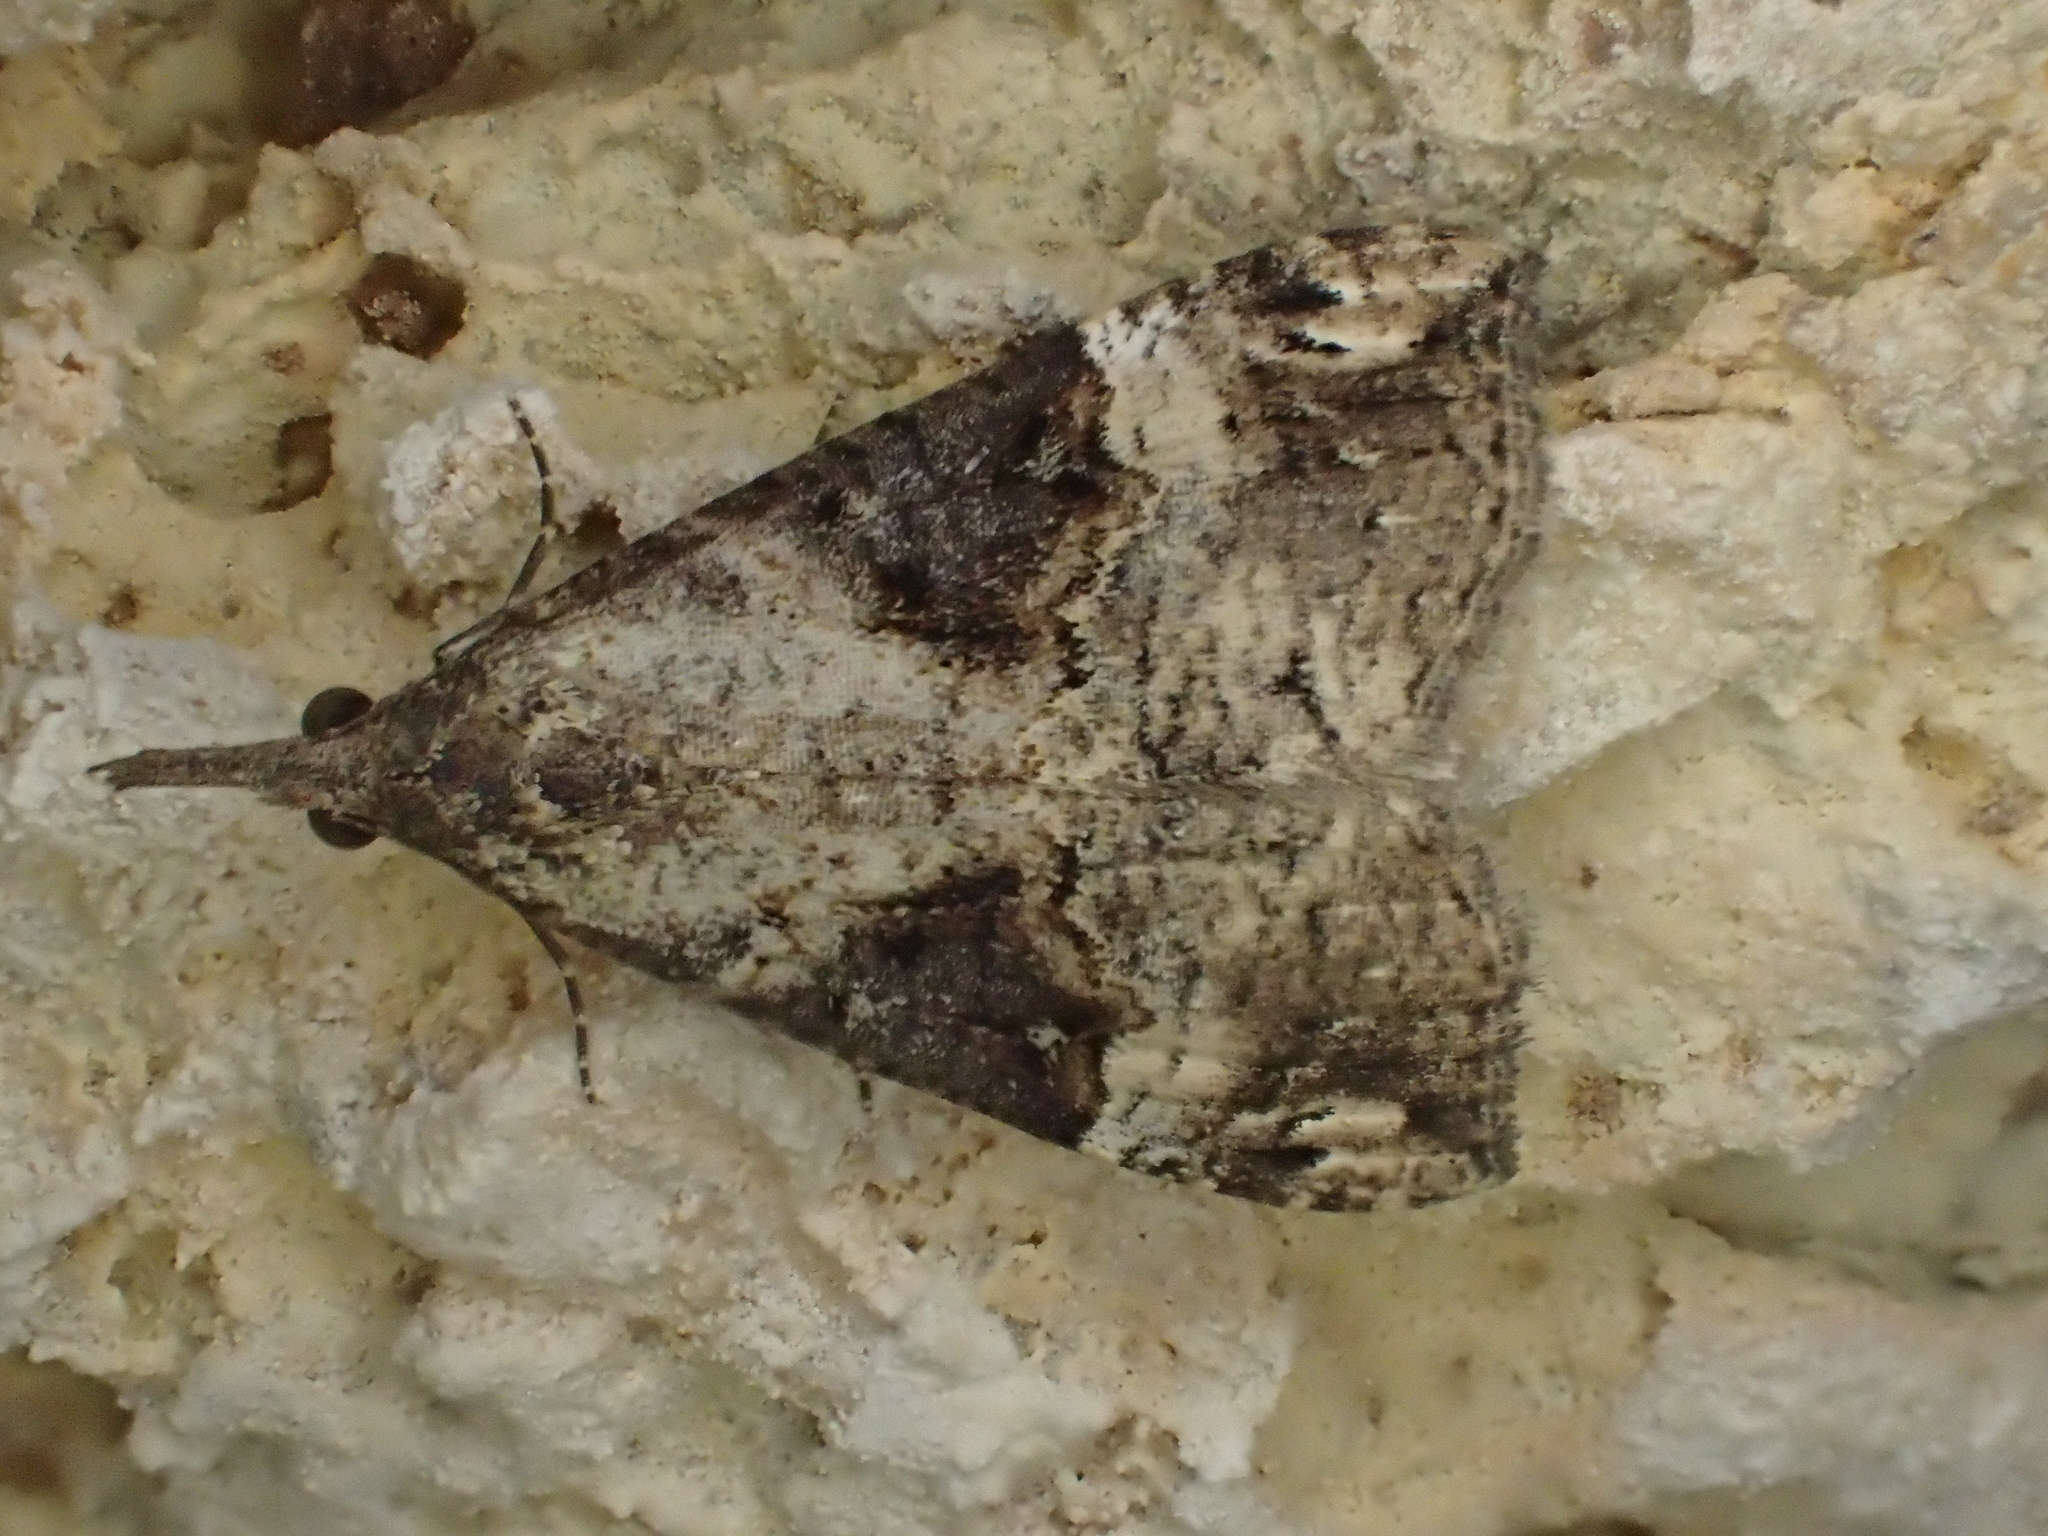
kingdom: Animalia
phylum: Arthropoda
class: Insecta
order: Lepidoptera
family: Erebidae
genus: Hypena
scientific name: Hypena obsitalis
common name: Bloxworth snout
